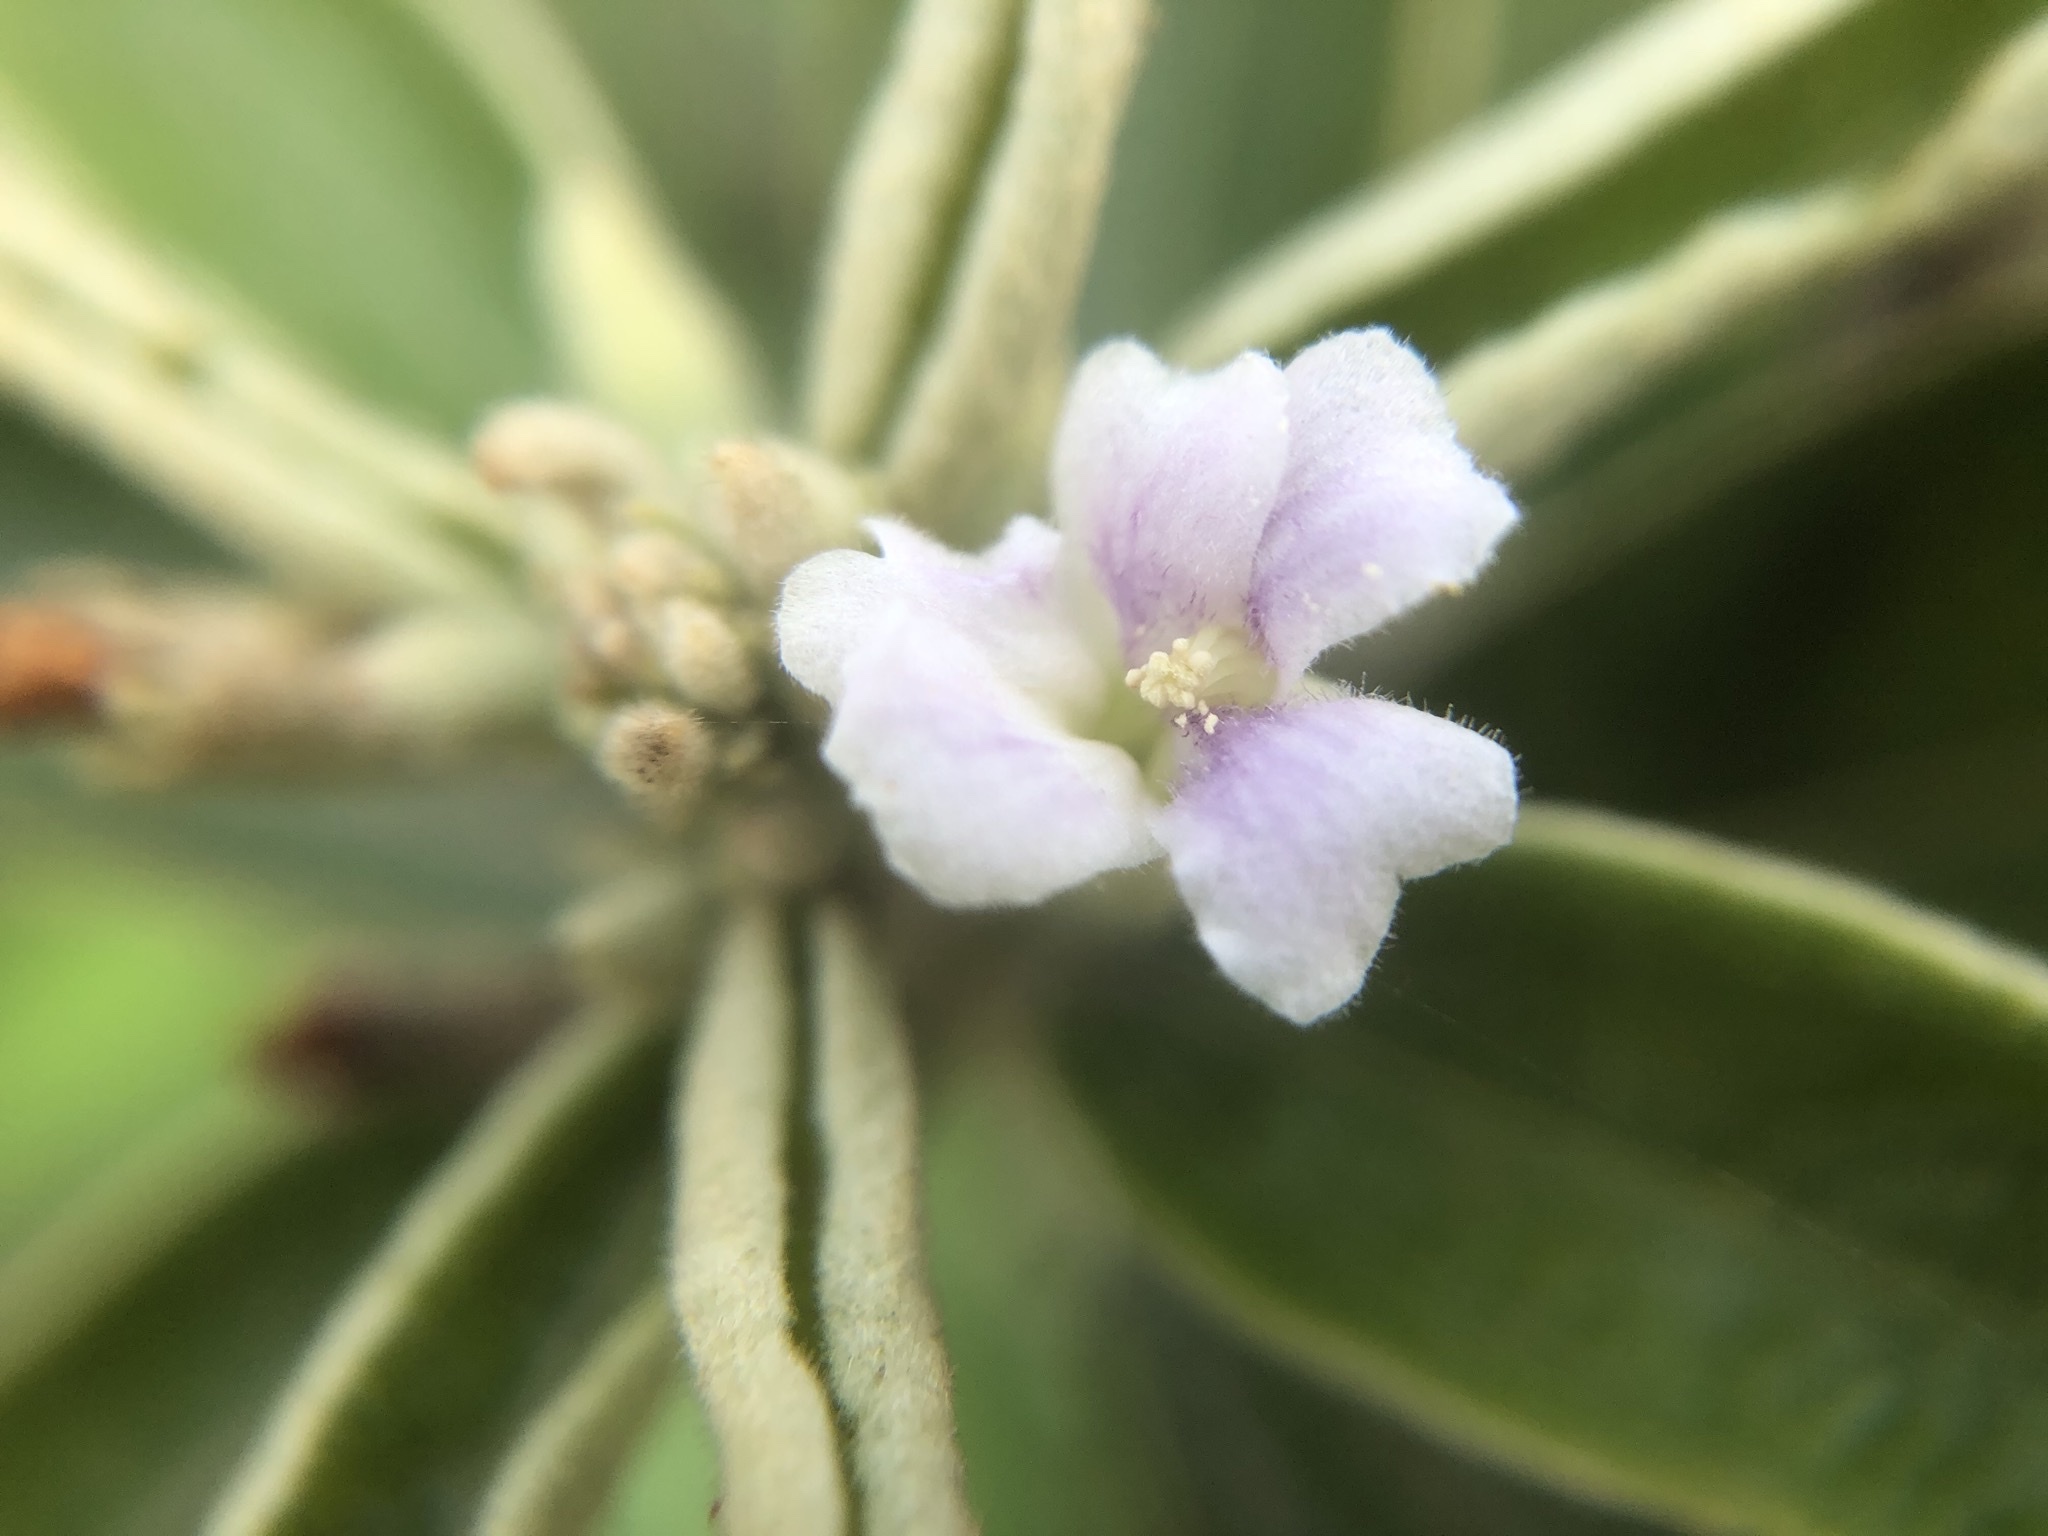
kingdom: Plantae
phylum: Tracheophyta
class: Magnoliopsida
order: Malvales
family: Malvaceae
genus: Helicteres
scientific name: Helicteres angustifolia
